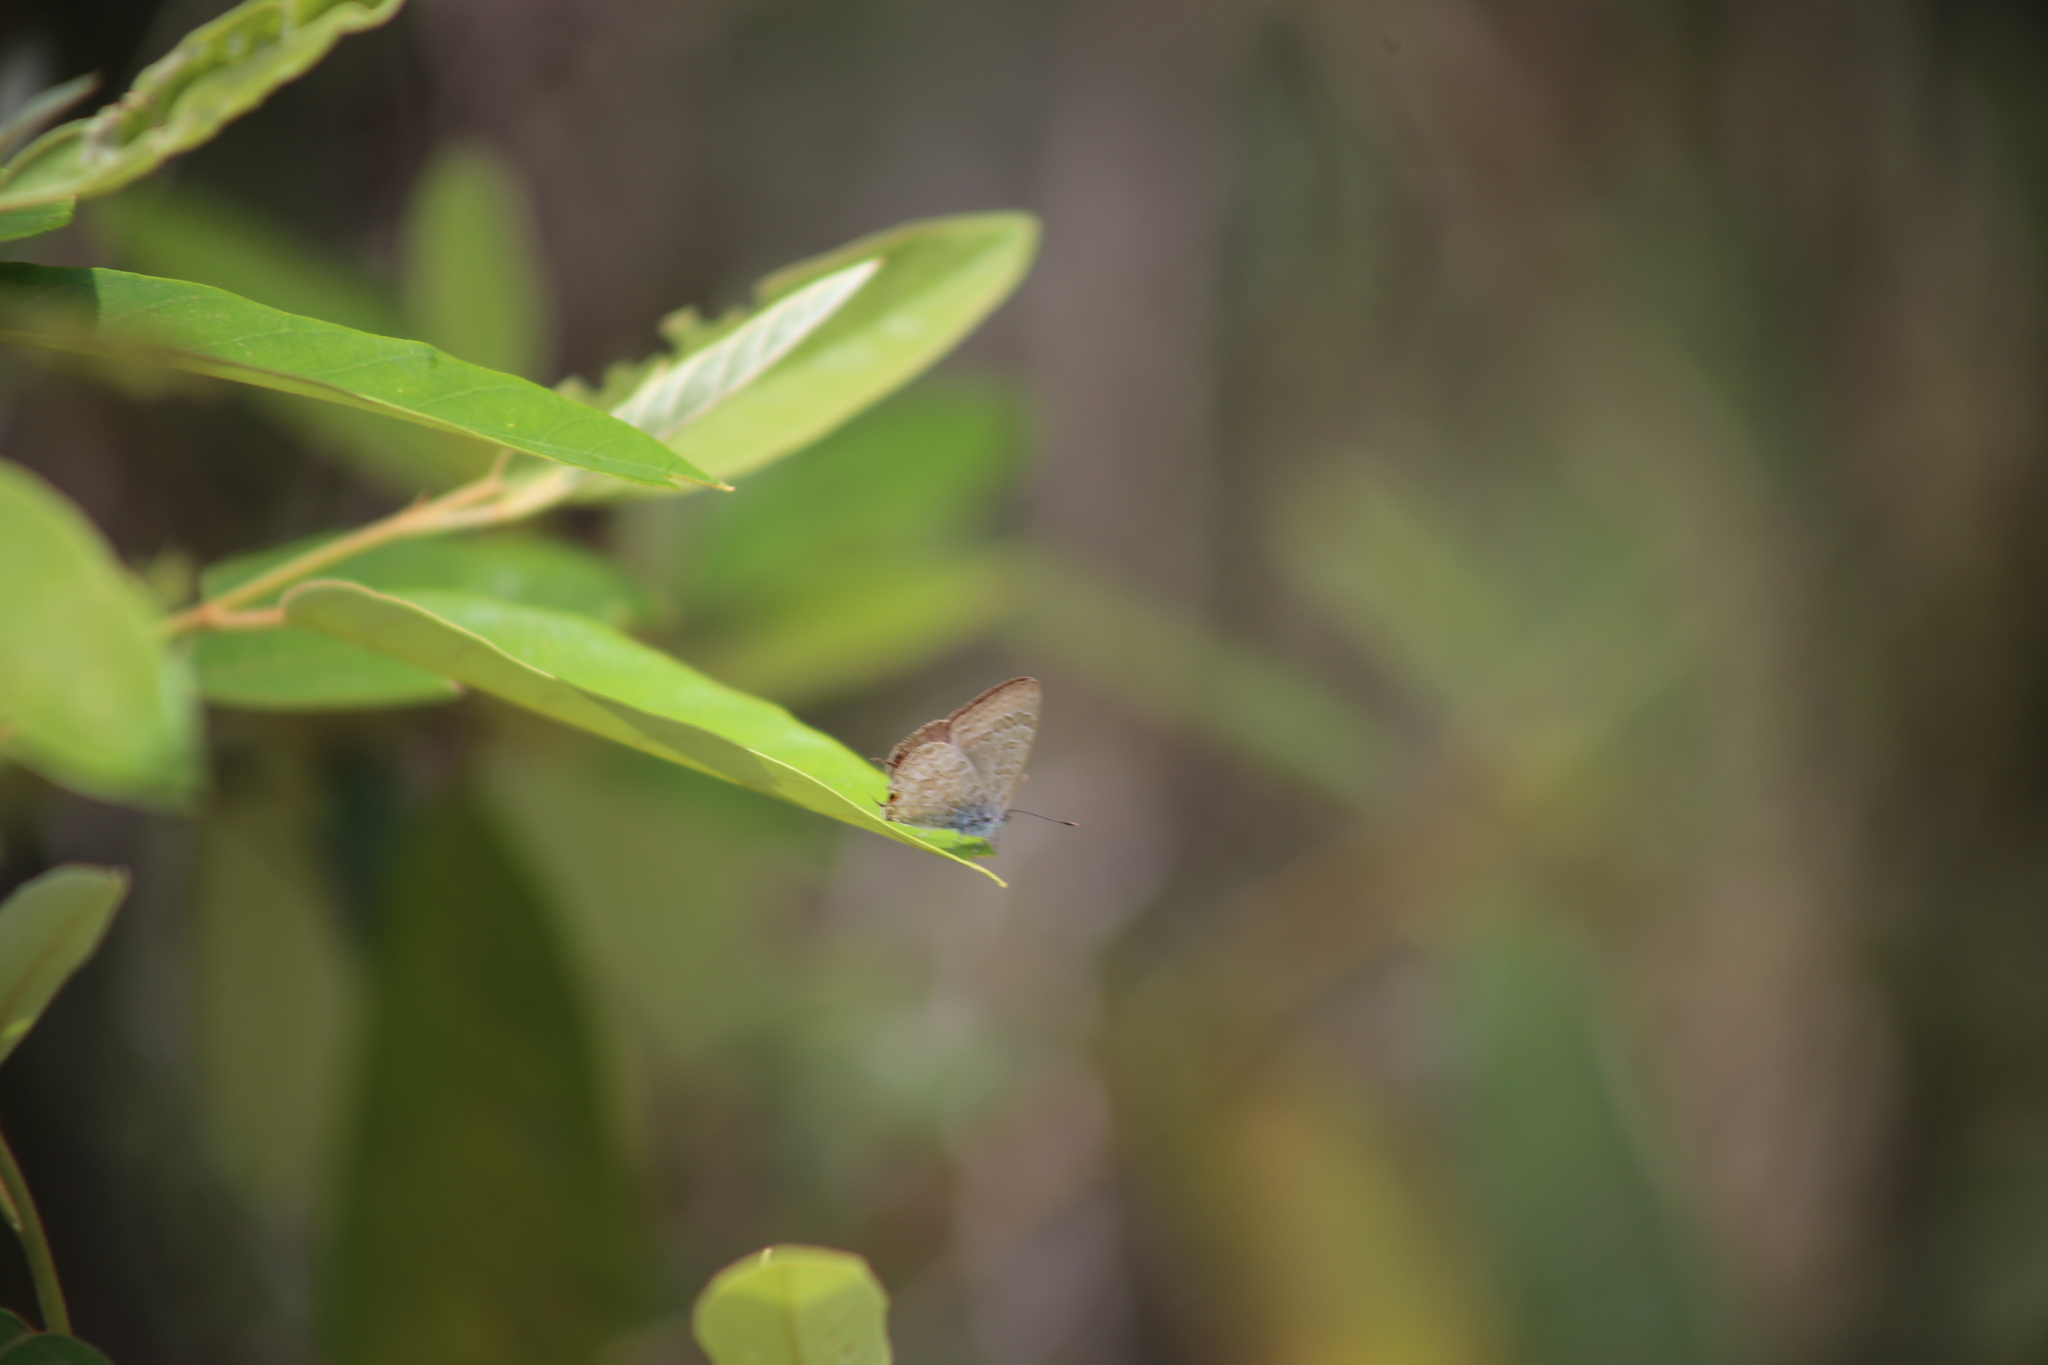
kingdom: Animalia
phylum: Arthropoda
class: Insecta
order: Lepidoptera
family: Lycaenidae
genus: Catopyrops
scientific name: Catopyrops florinda
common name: Speckled line-blue
